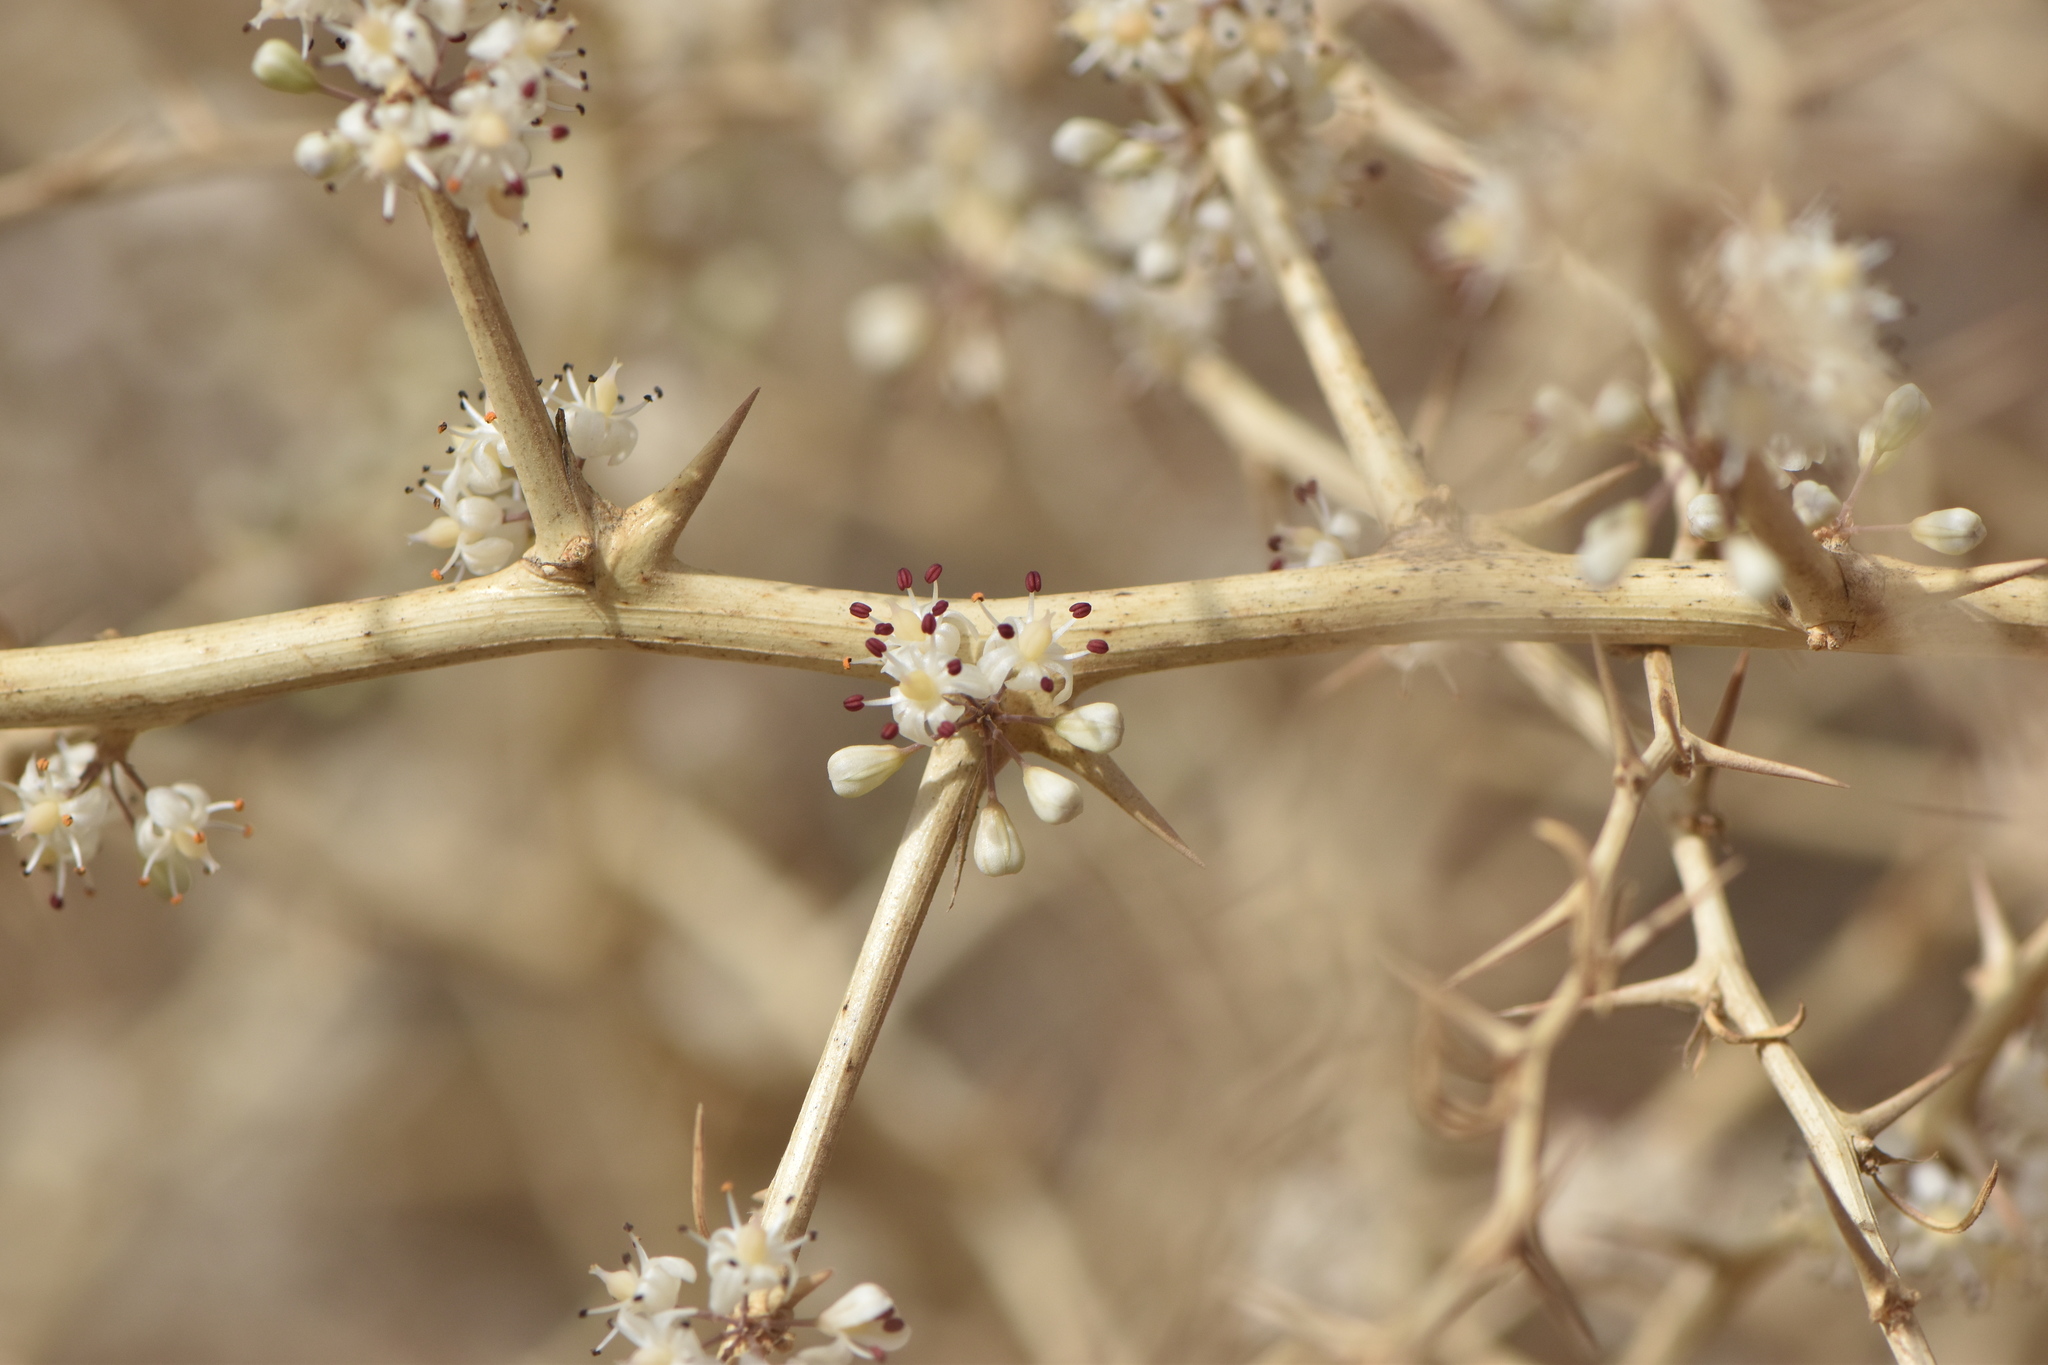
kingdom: Plantae
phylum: Tracheophyta
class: Liliopsida
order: Asparagales
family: Asparagaceae
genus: Asparagus
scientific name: Asparagus albus
